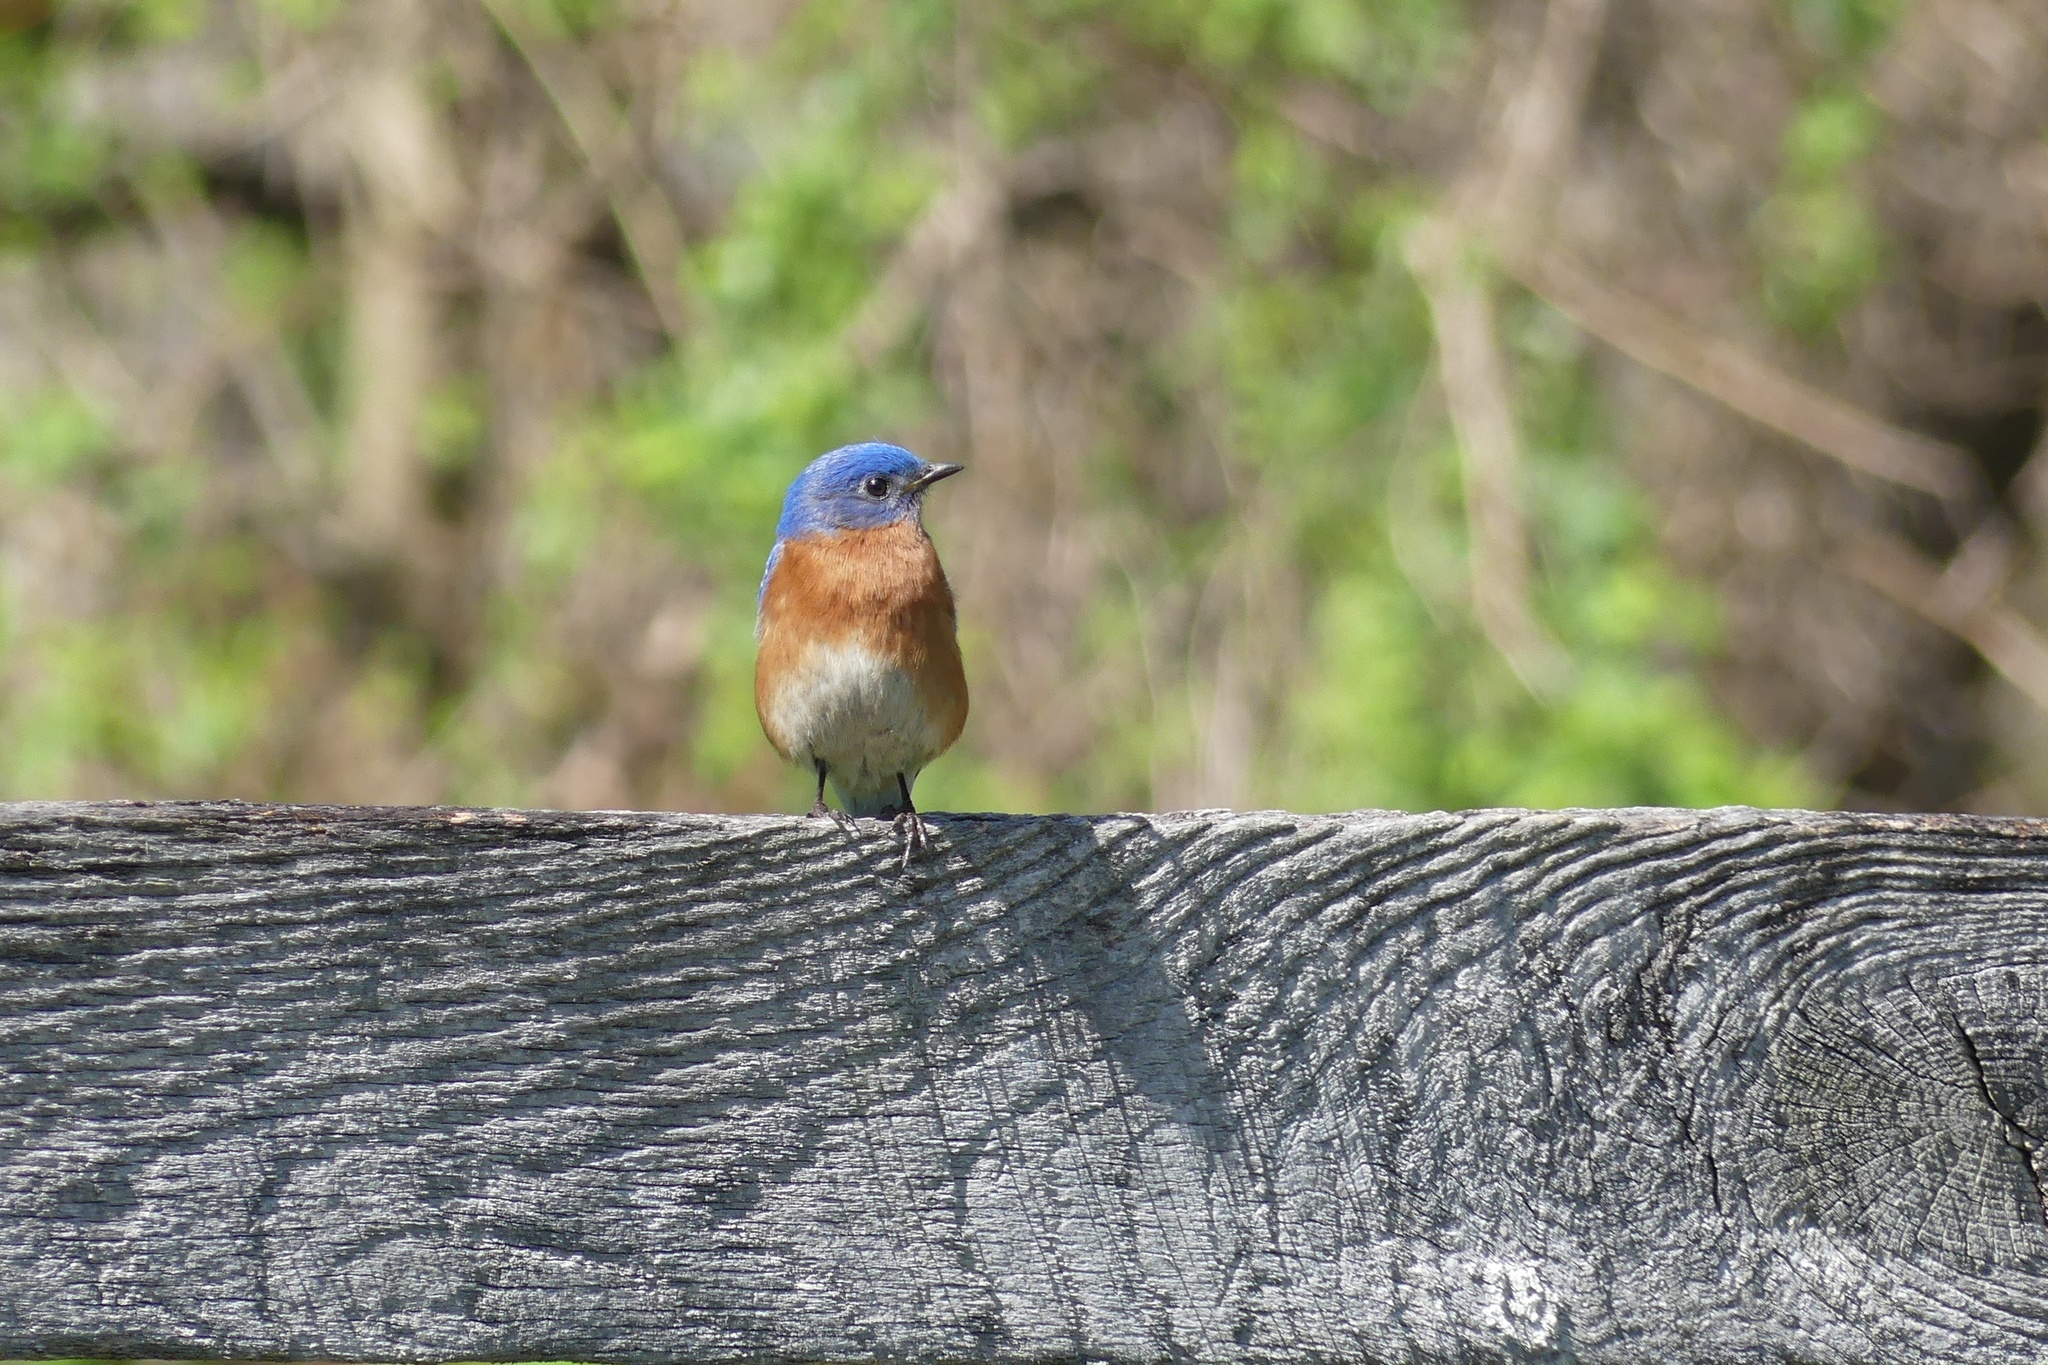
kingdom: Animalia
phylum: Chordata
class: Aves
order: Passeriformes
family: Turdidae
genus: Sialia
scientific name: Sialia sialis
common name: Eastern bluebird
